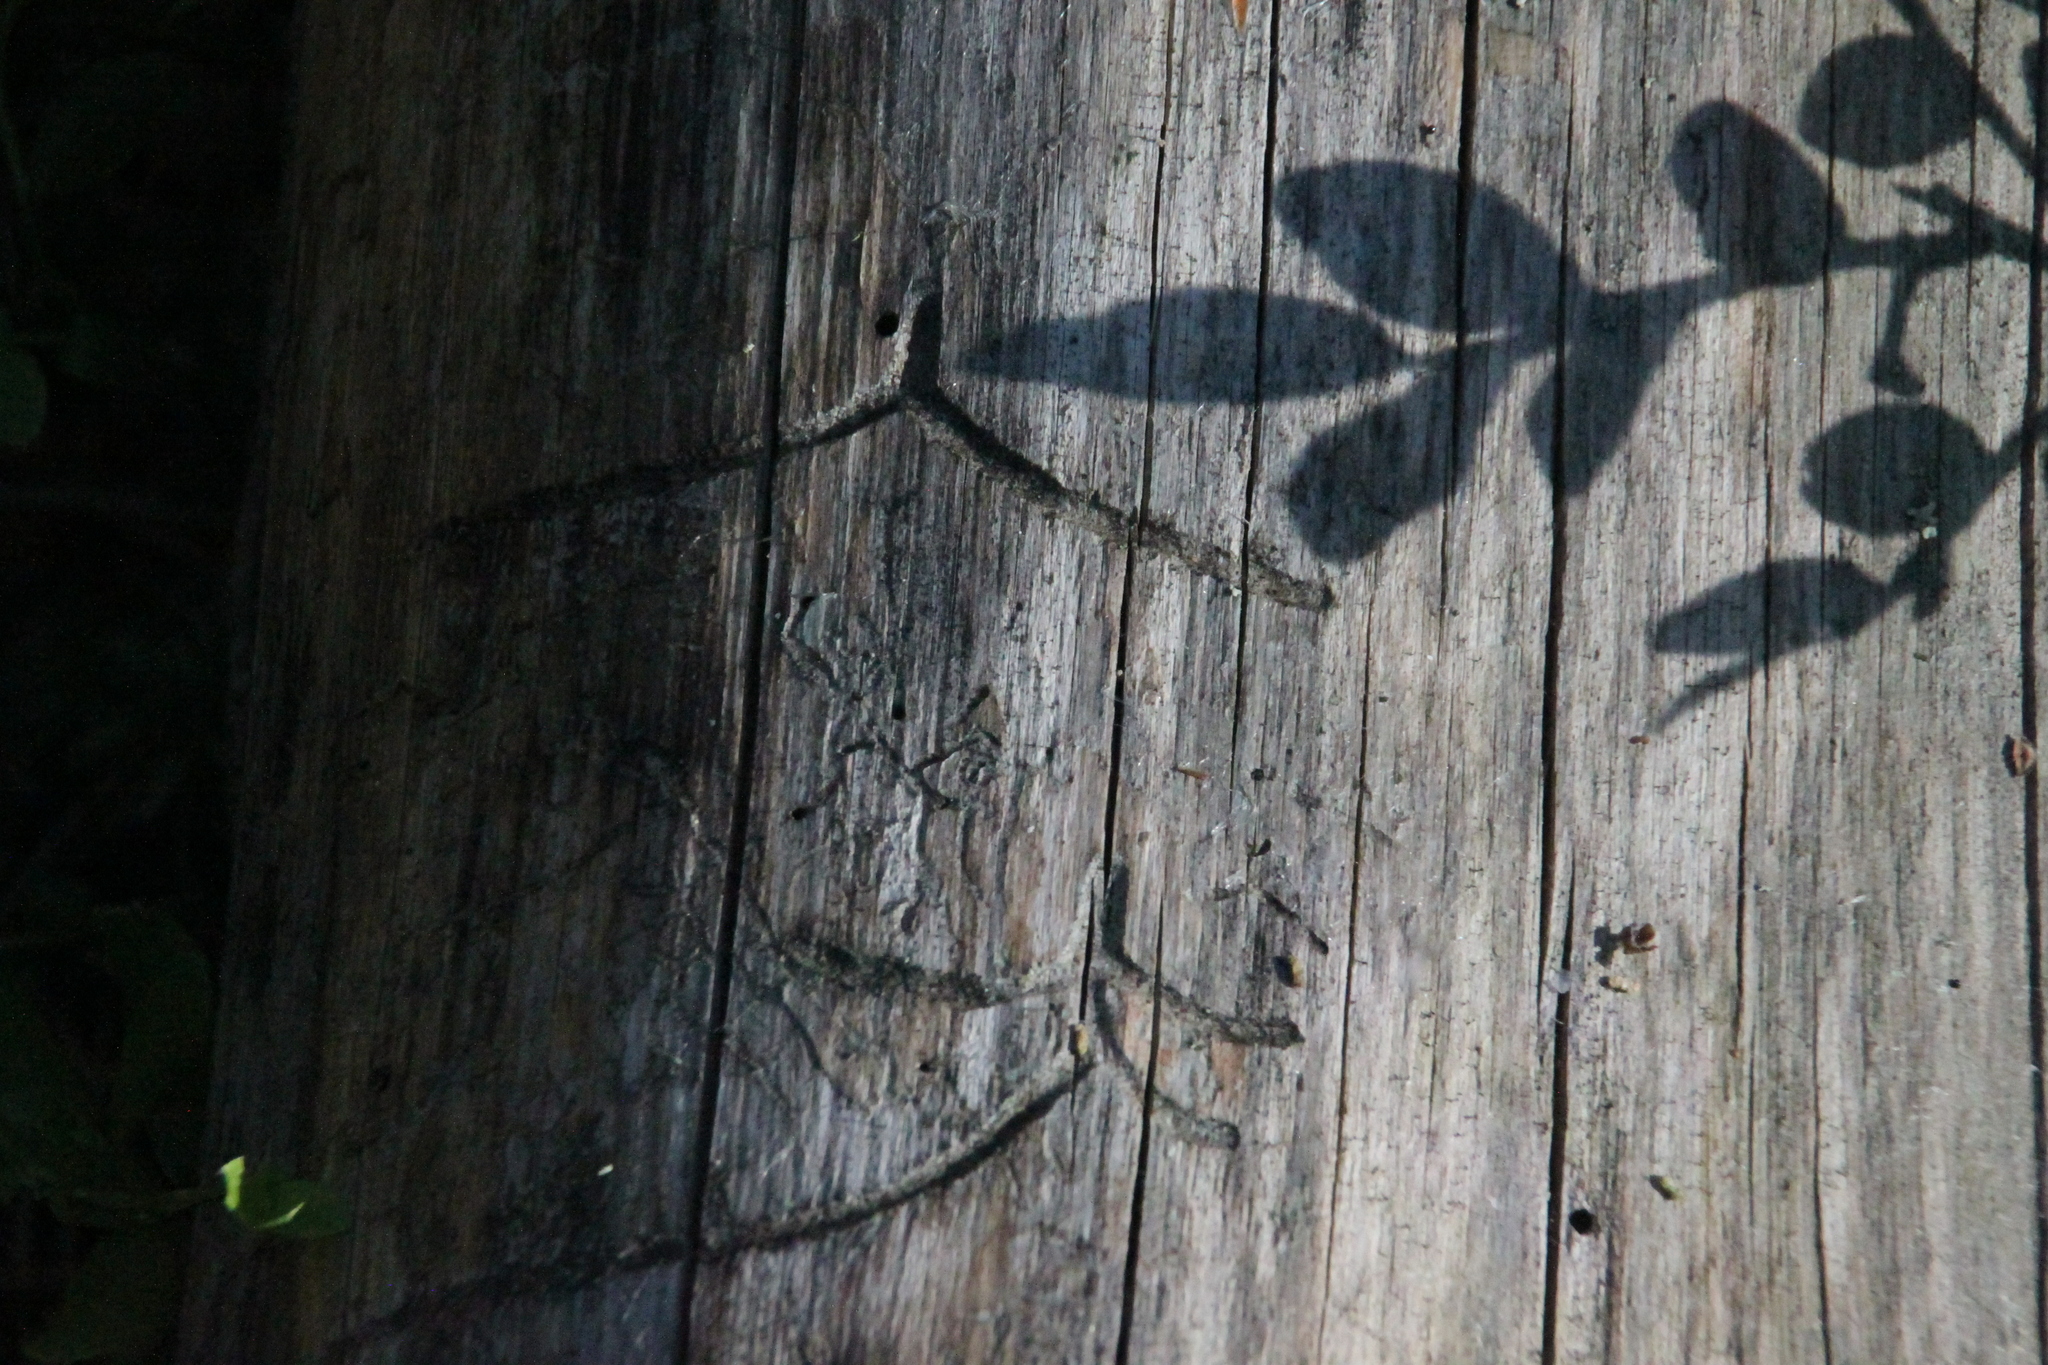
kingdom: Animalia
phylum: Arthropoda
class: Insecta
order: Coleoptera
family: Curculionidae
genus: Tomicus
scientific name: Tomicus minor
